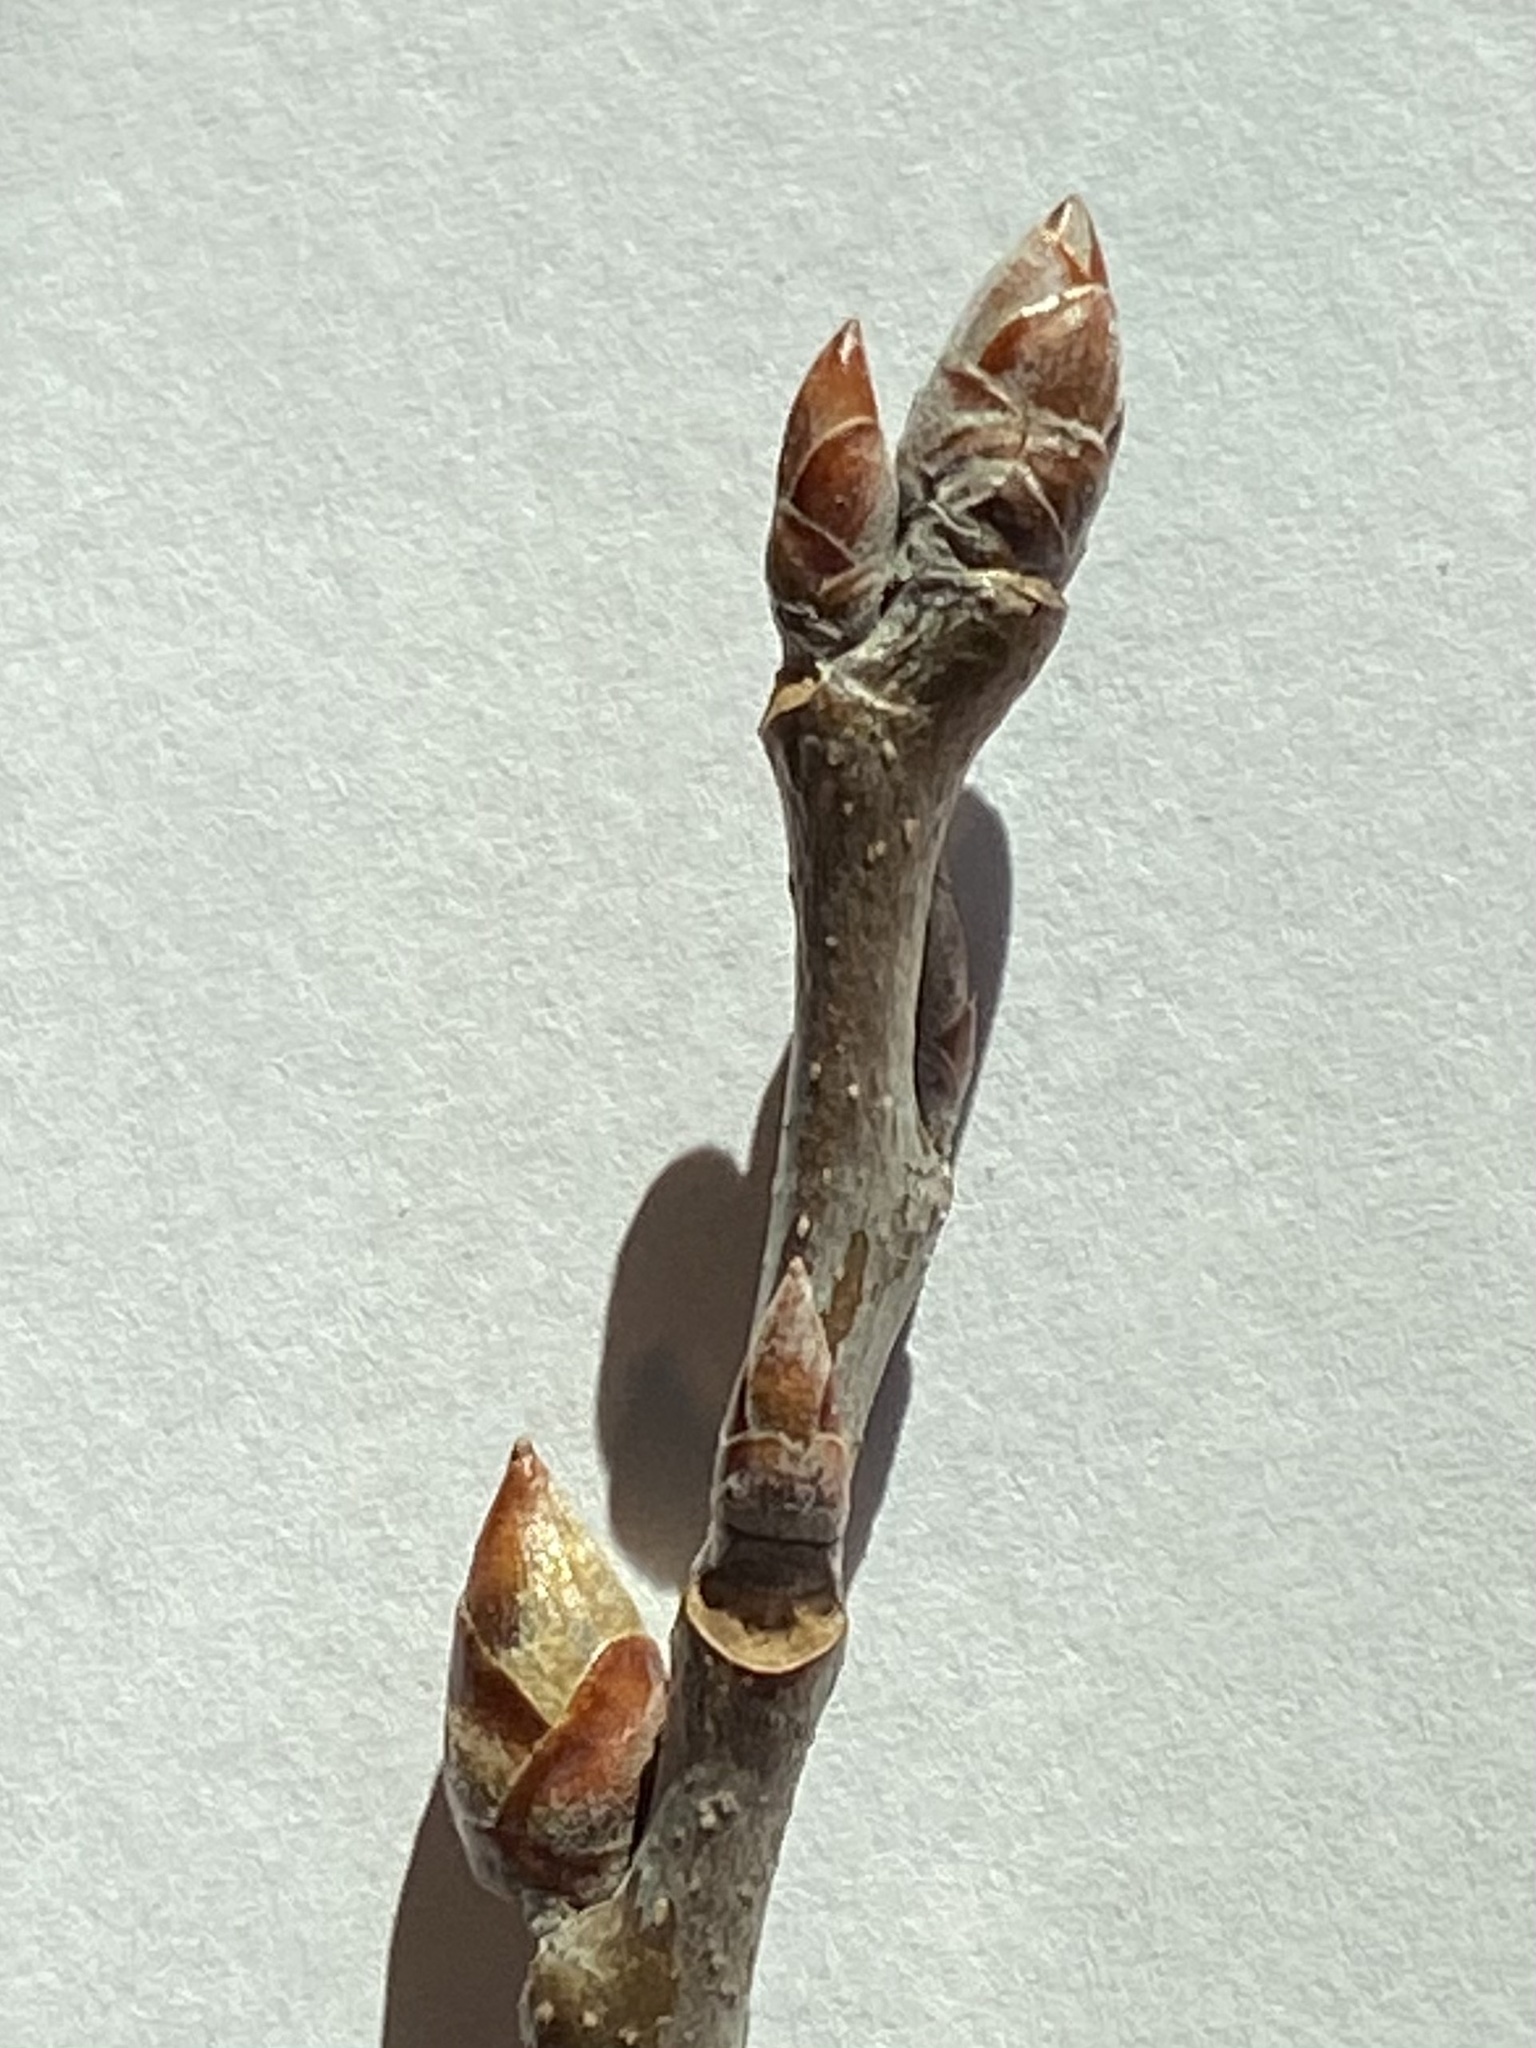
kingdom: Plantae
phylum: Tracheophyta
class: Magnoliopsida
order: Malpighiales
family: Salicaceae
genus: Populus
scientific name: Populus grandidentata
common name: Bigtooth aspen
